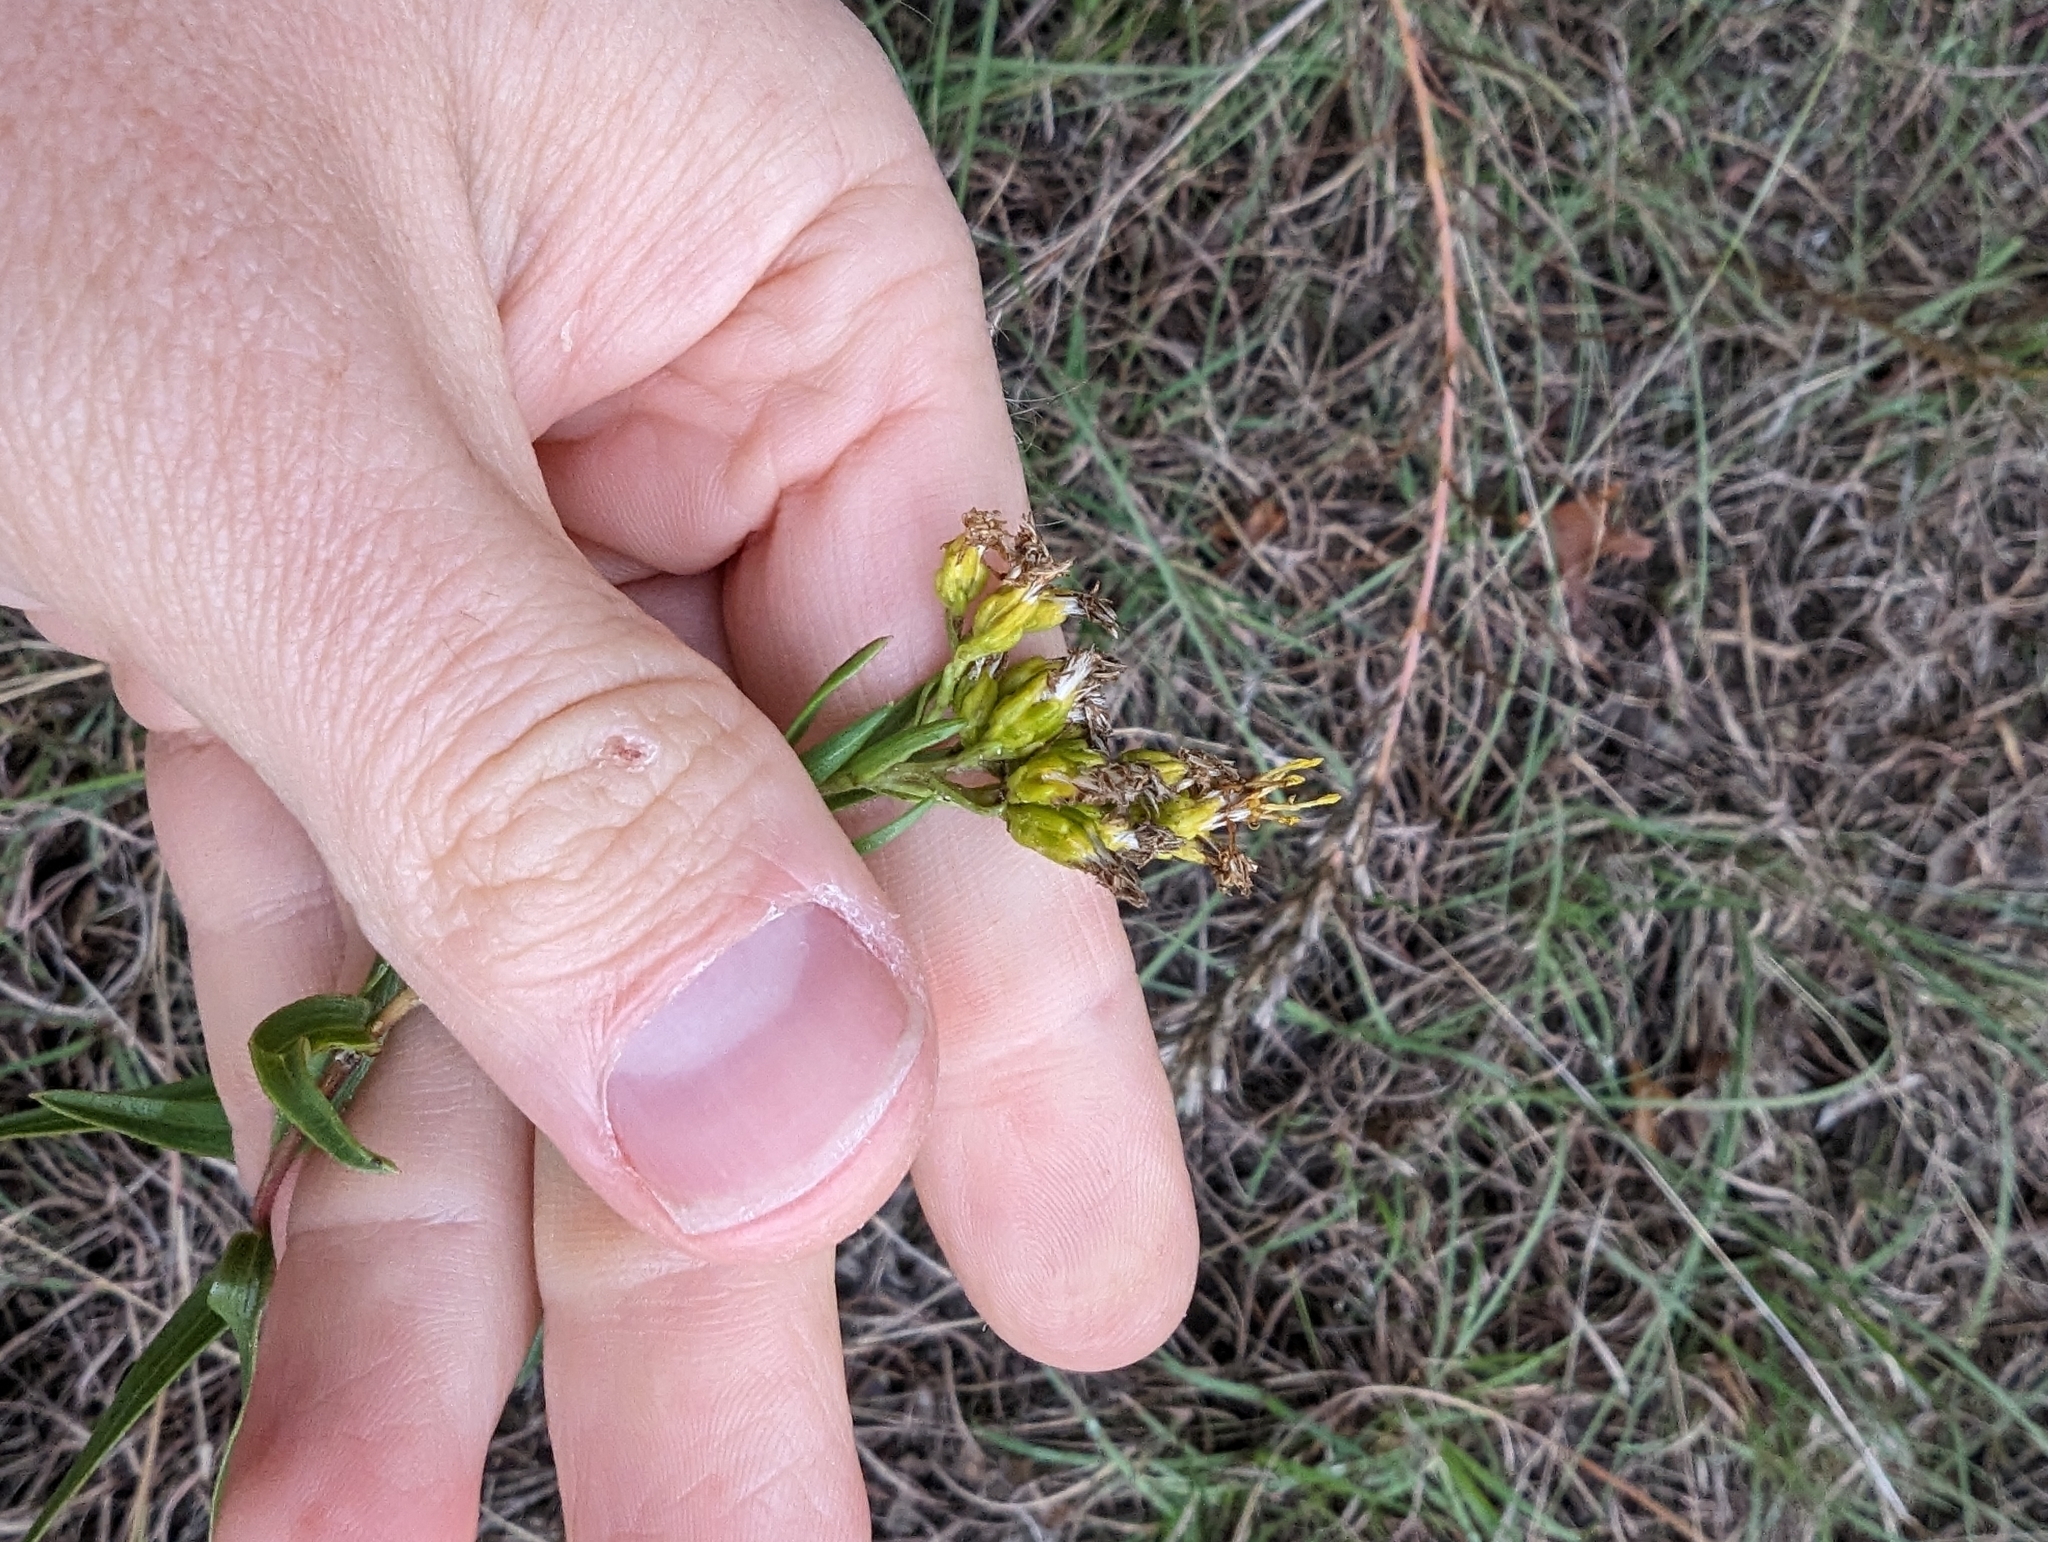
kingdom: Plantae
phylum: Tracheophyta
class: Magnoliopsida
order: Asterales
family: Asteraceae
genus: Solidago
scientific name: Solidago nitida
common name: Shiny goldenrod
